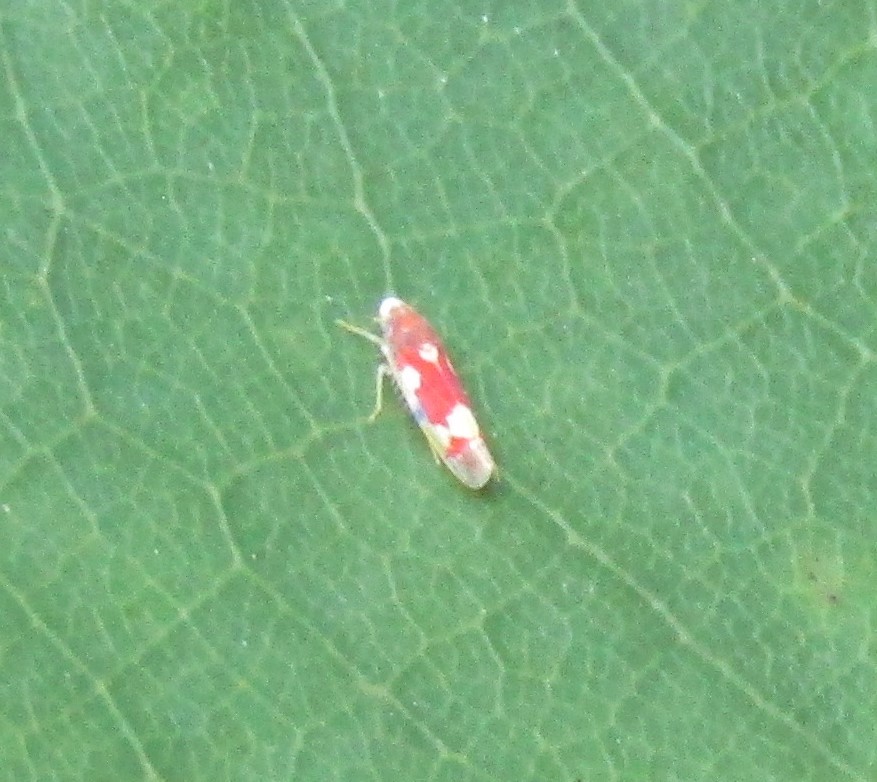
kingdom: Animalia
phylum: Arthropoda
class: Insecta
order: Hemiptera
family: Cicadellidae
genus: Erythroneura
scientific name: Erythroneura bistrata
